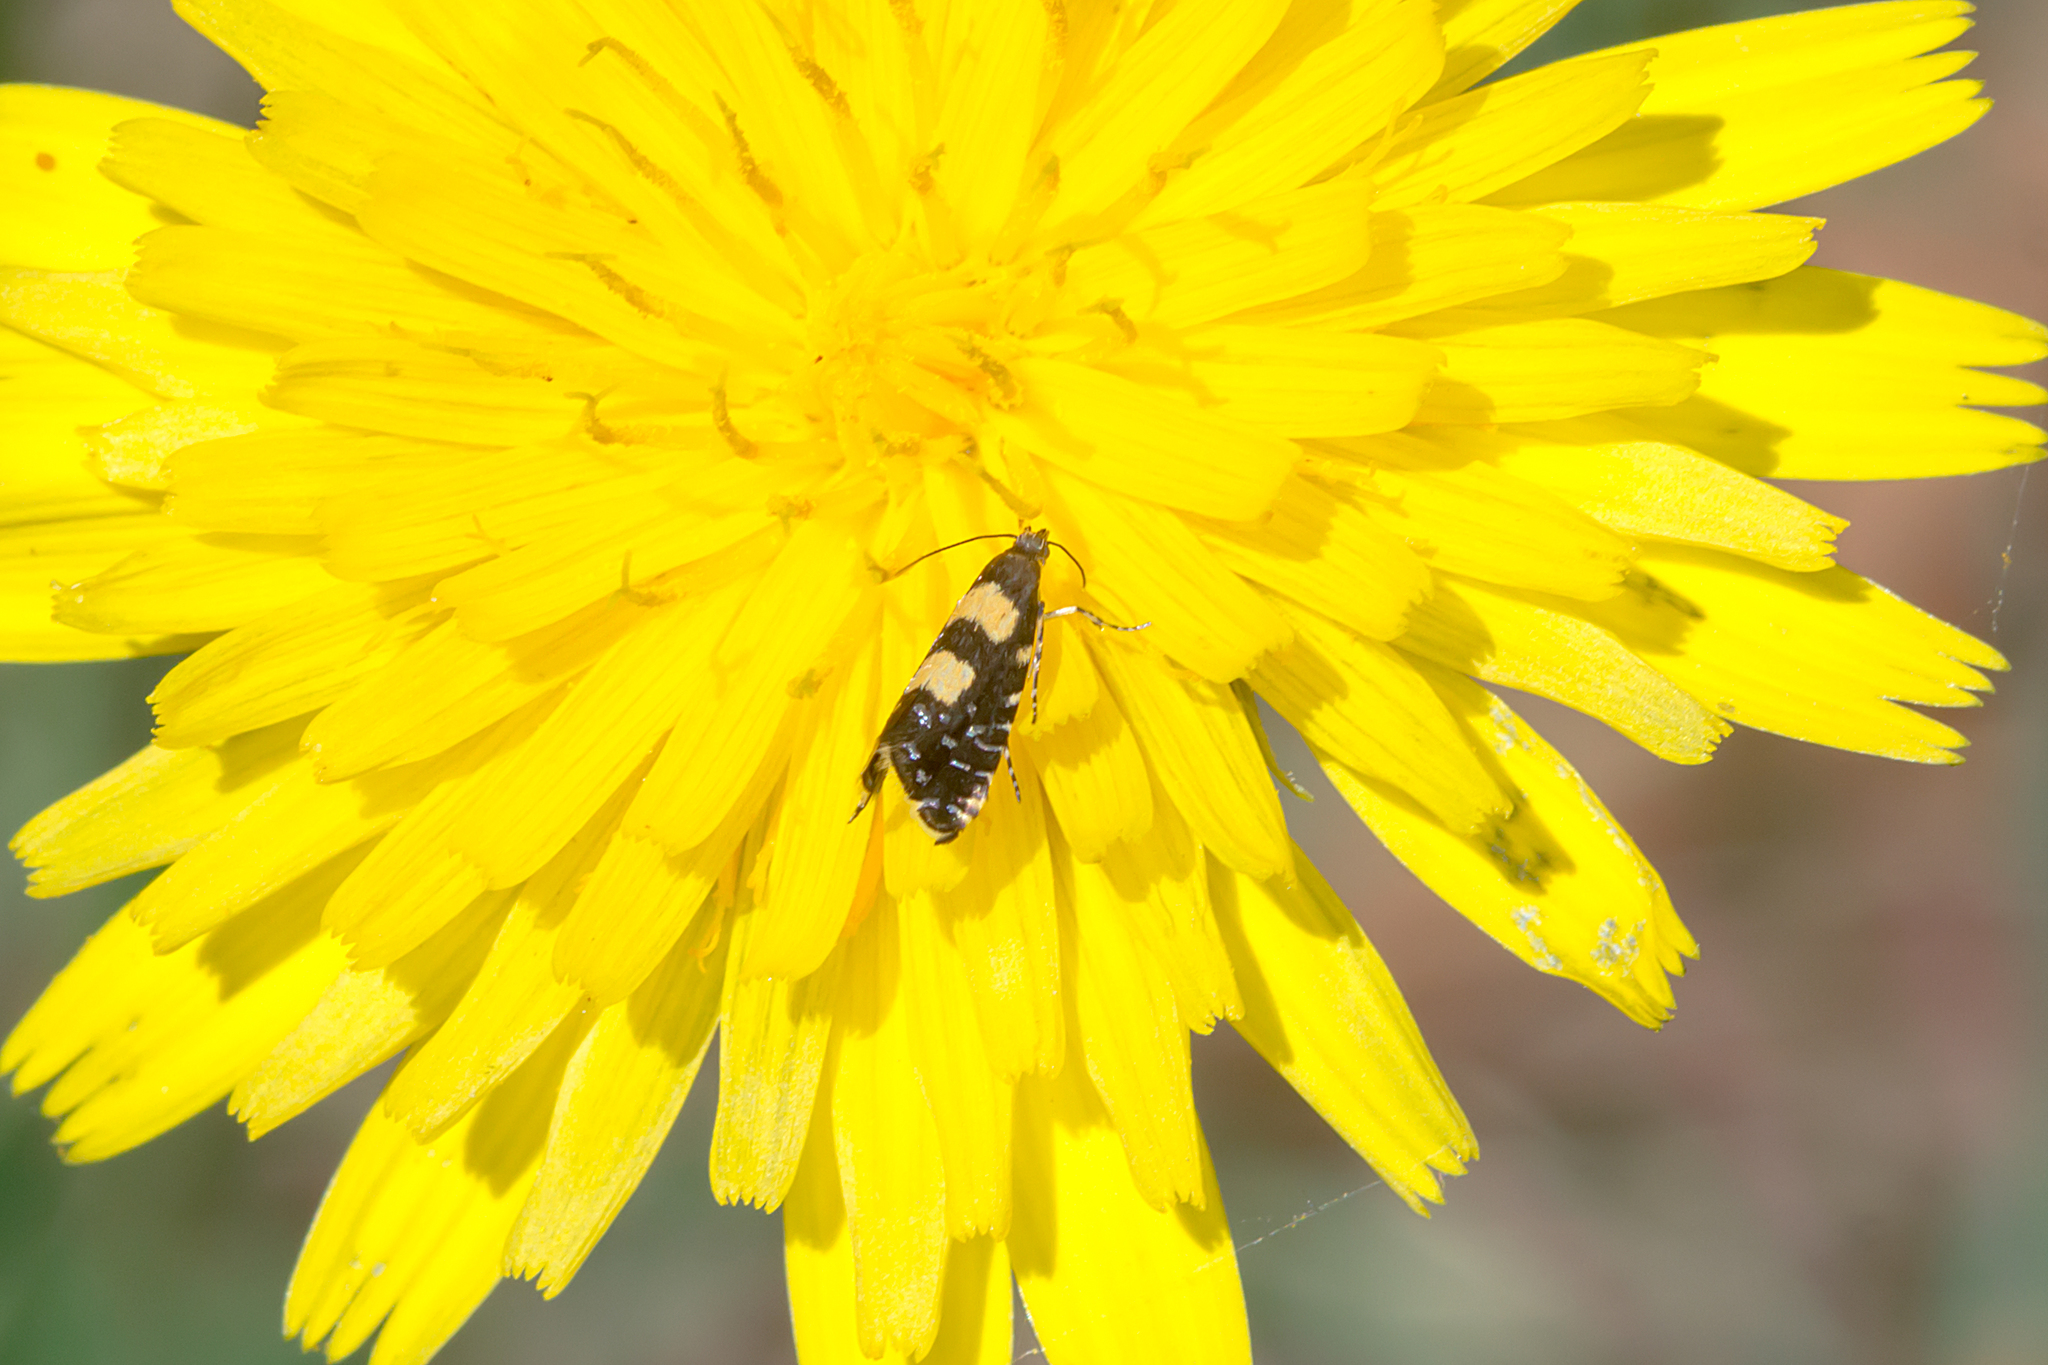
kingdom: Animalia
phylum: Arthropoda
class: Insecta
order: Lepidoptera
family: Glyphipterigidae
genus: Glyphipterix
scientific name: Glyphipterix chrysoplanetis
